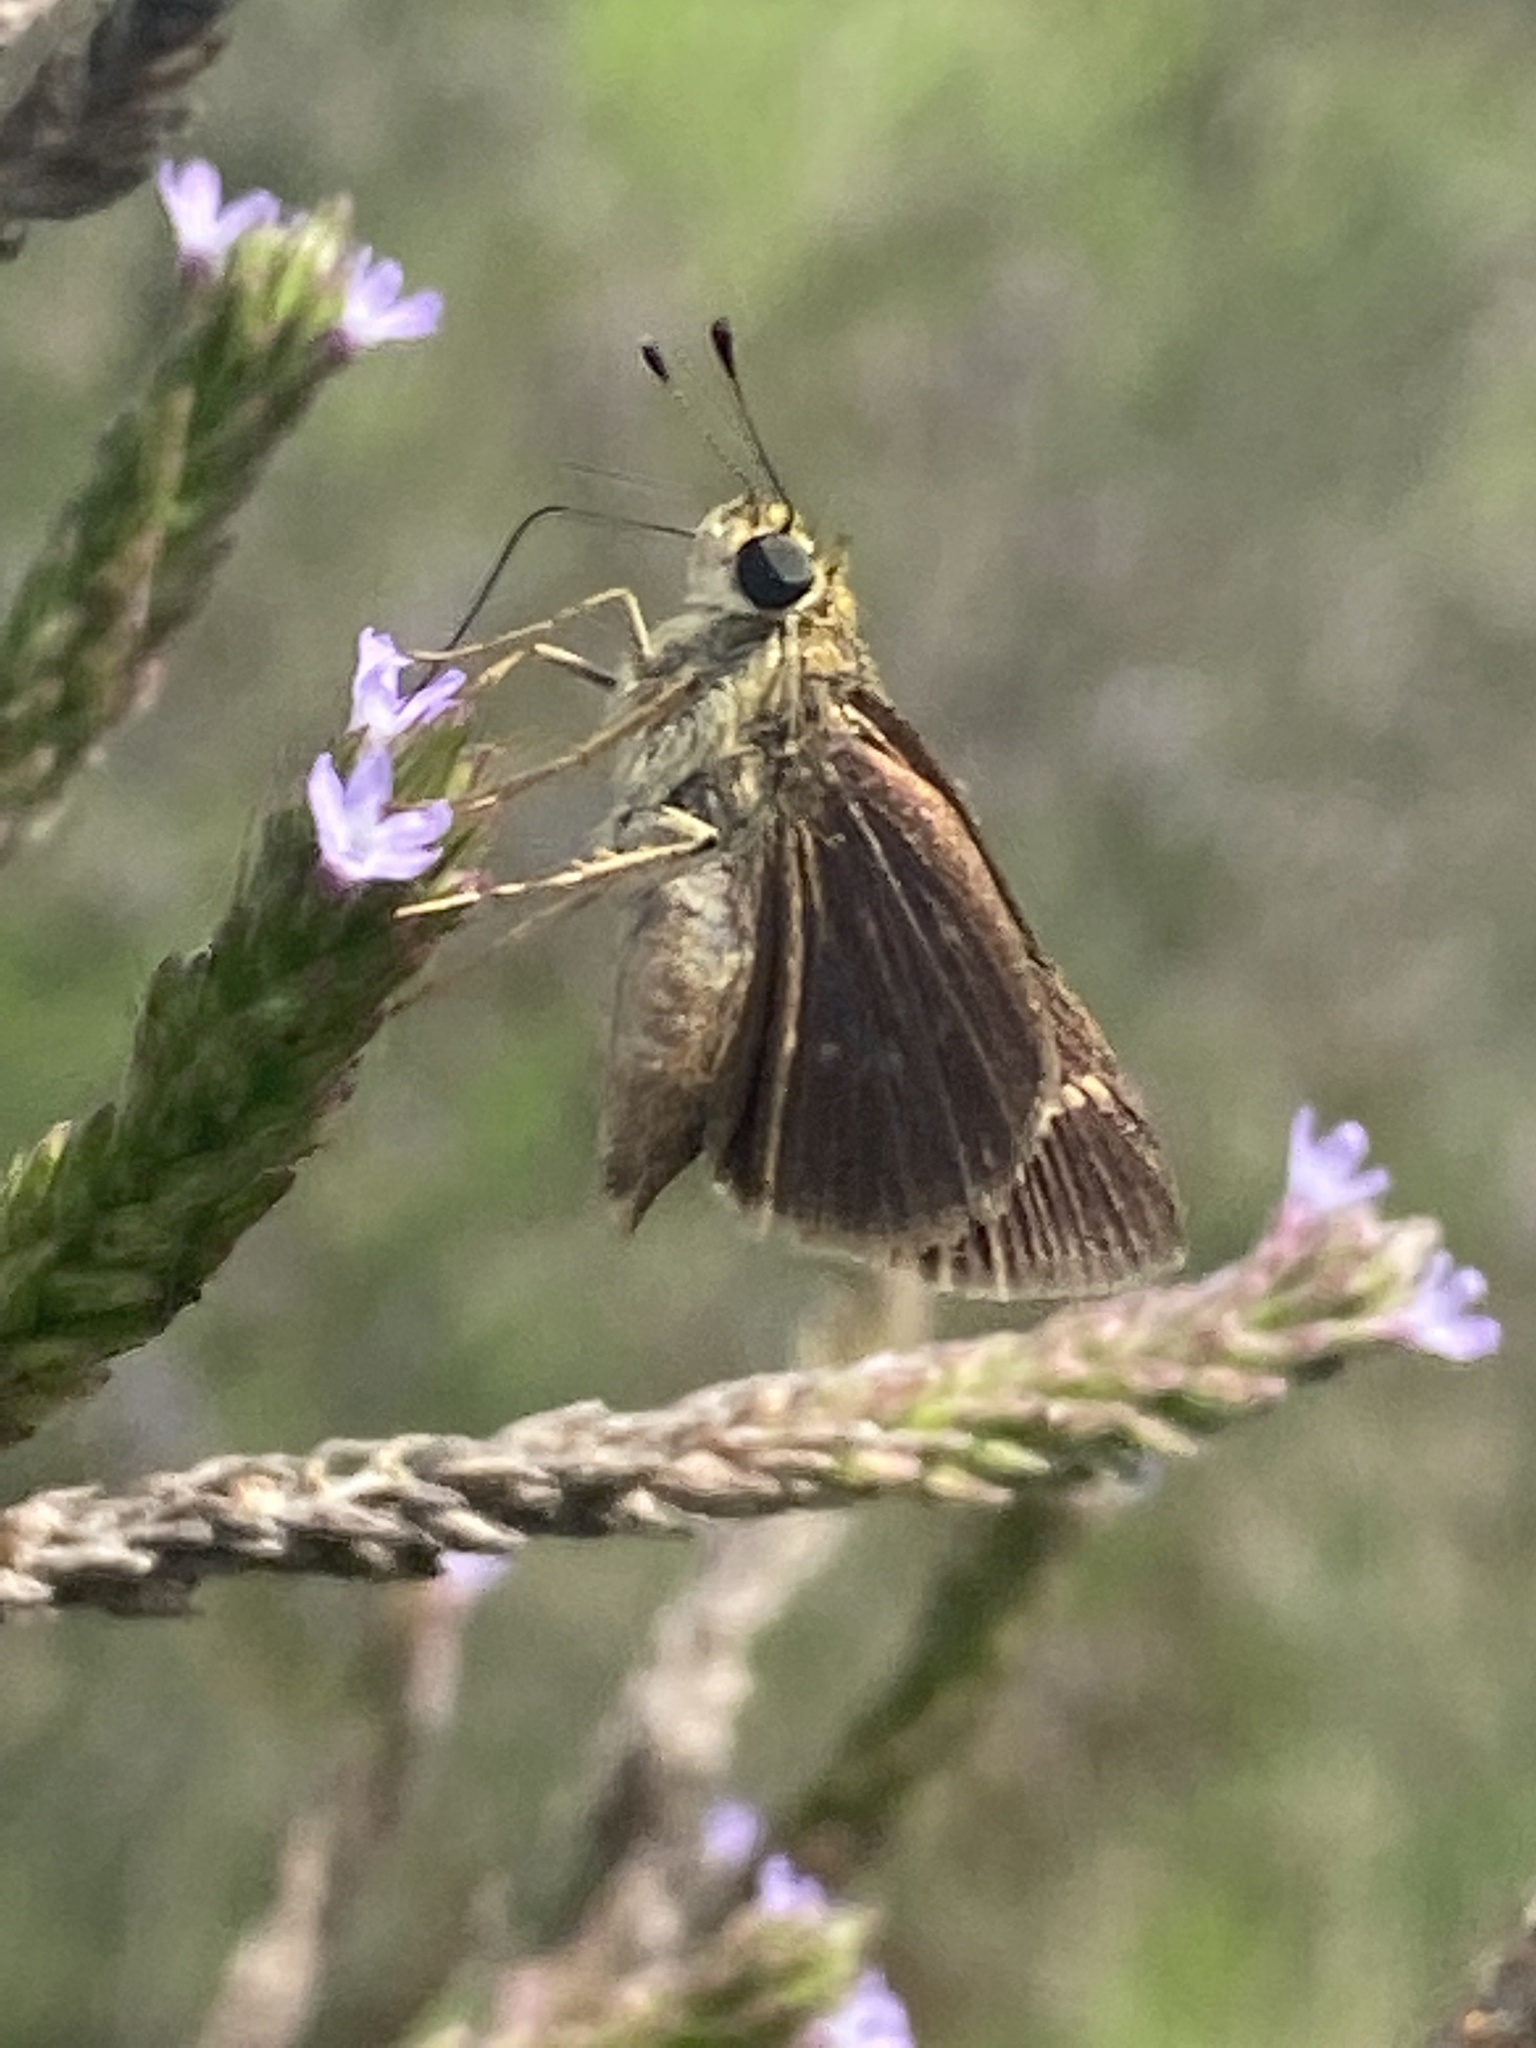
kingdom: Animalia
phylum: Arthropoda
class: Insecta
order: Lepidoptera
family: Hesperiidae
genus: Vernia
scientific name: Vernia verna
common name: Little glassywing
